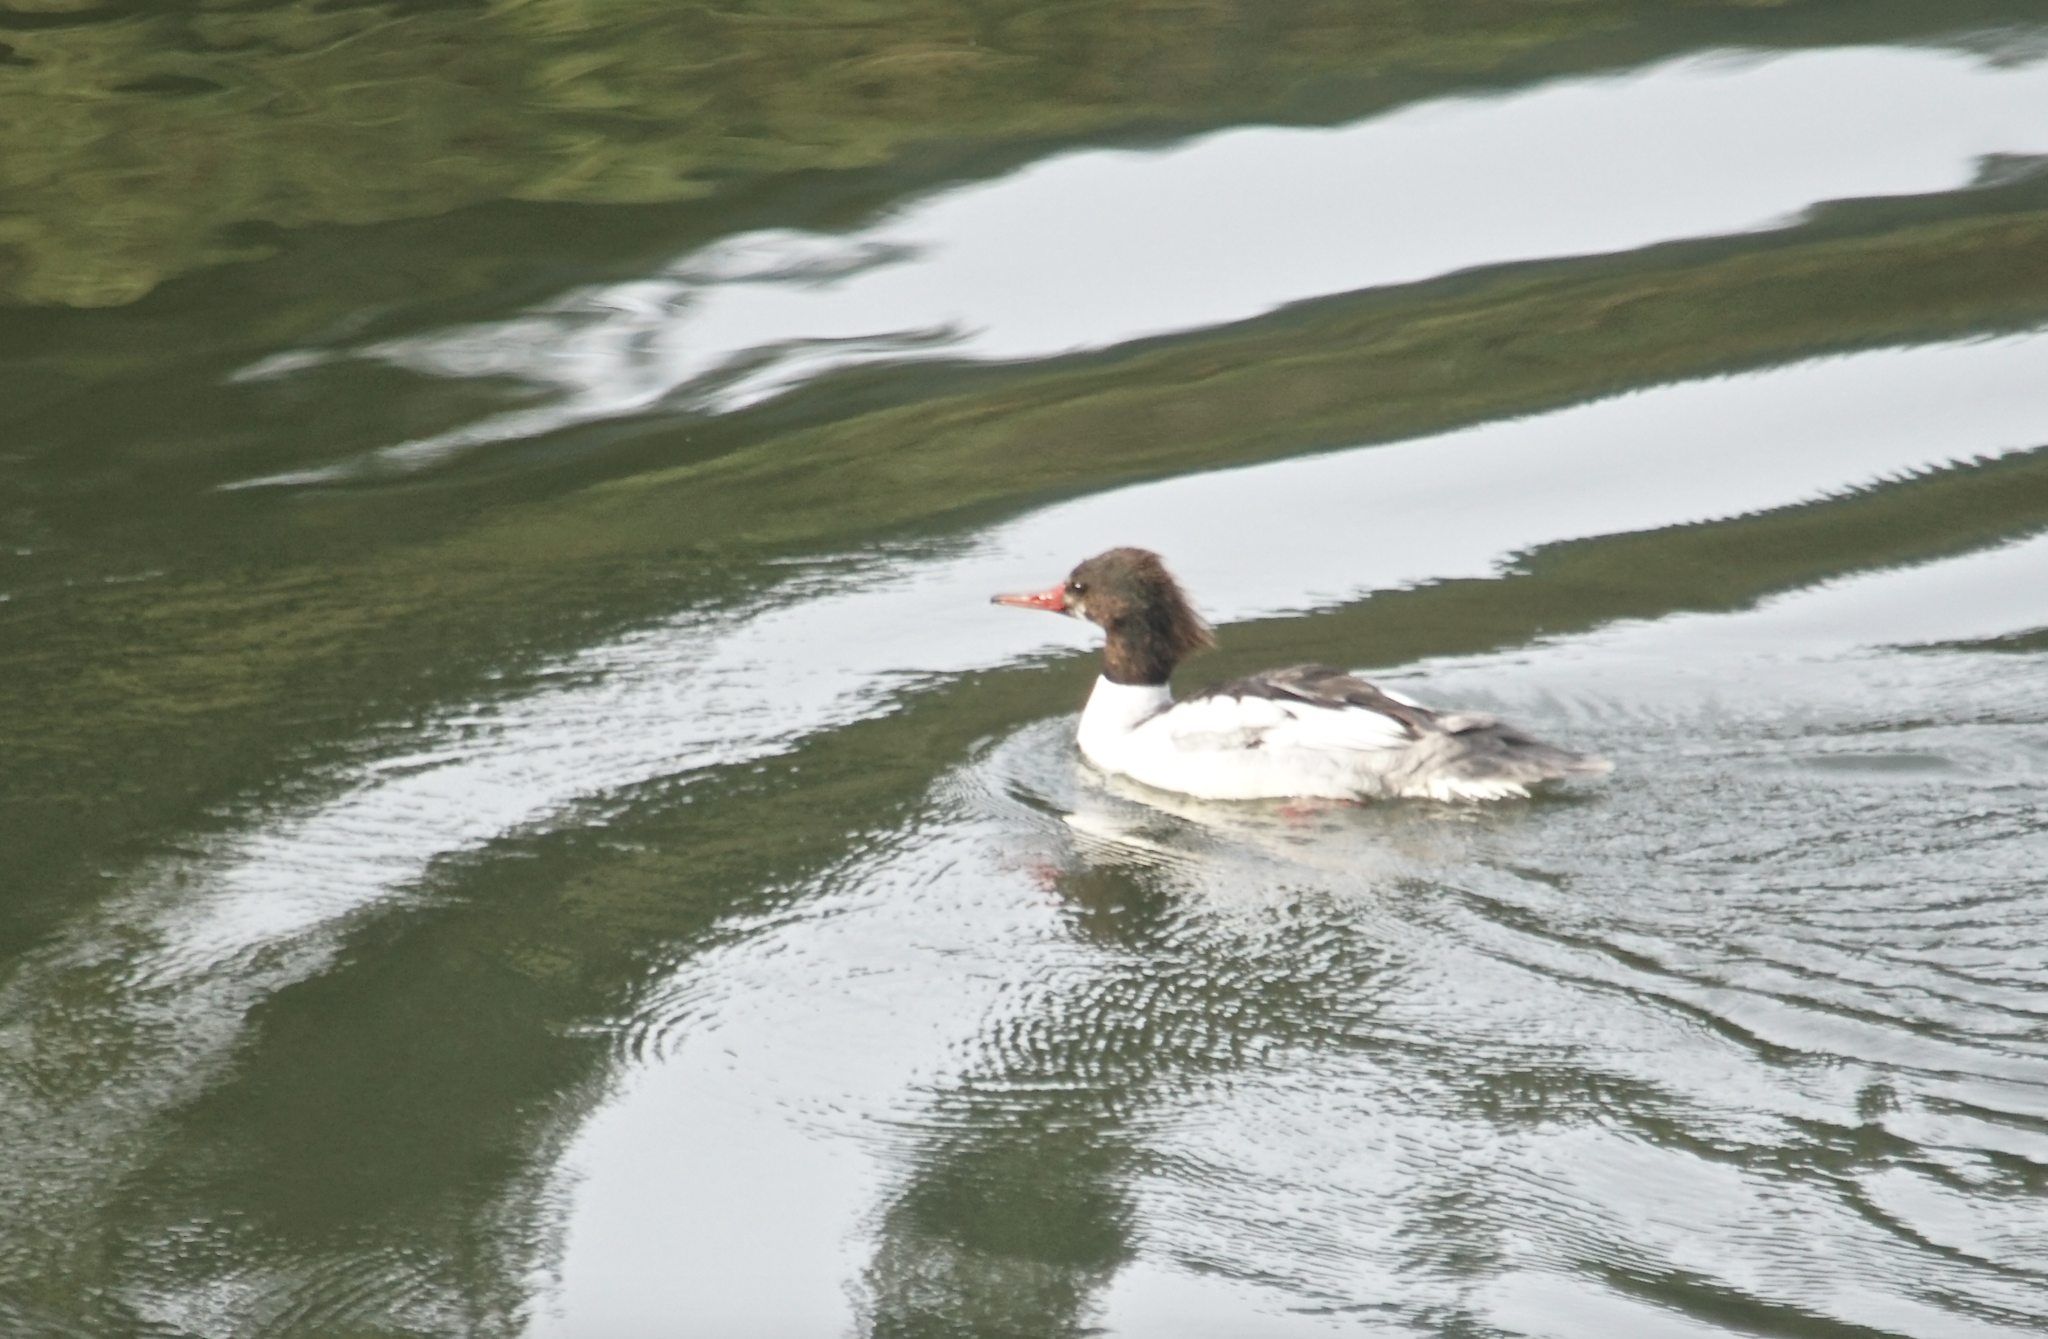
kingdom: Animalia
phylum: Chordata
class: Aves
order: Anseriformes
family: Anatidae
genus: Mergus
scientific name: Mergus merganser
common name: Common merganser
